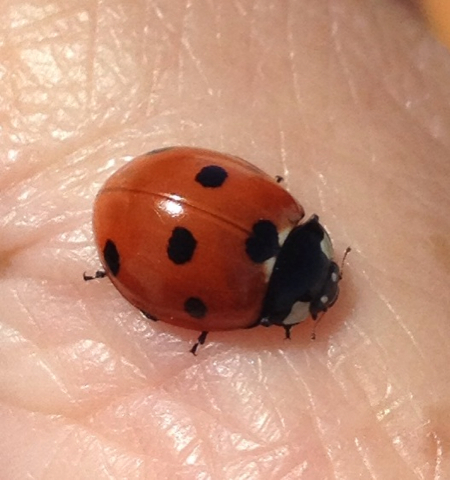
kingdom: Animalia
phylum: Arthropoda
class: Insecta
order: Coleoptera
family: Coccinellidae
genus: Coccinella
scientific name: Coccinella septempunctata
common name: Sevenspotted lady beetle
